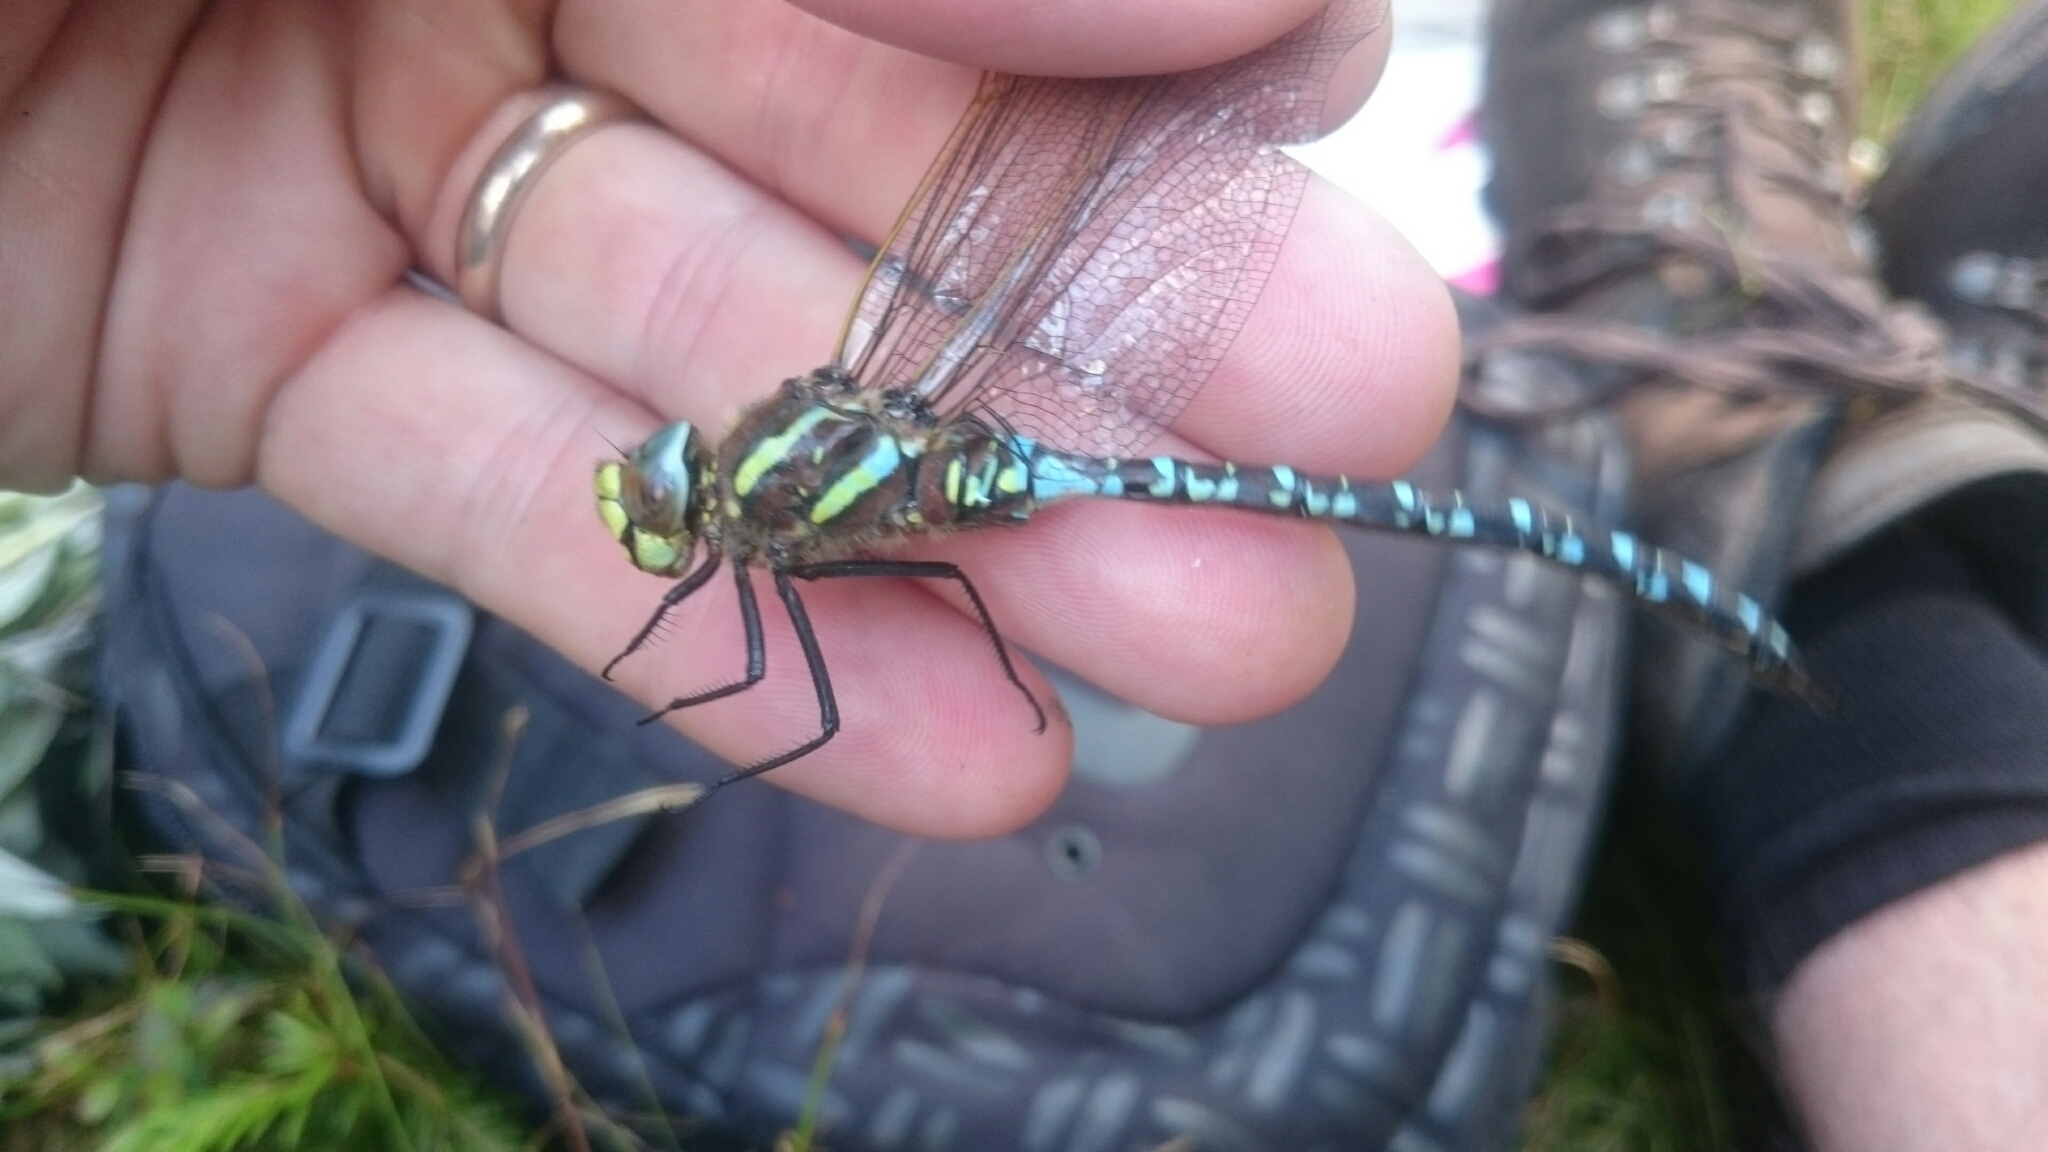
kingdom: Animalia
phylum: Arthropoda
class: Insecta
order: Odonata
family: Aeshnidae
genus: Aeshna
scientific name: Aeshna juncea
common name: Moorland hawker
